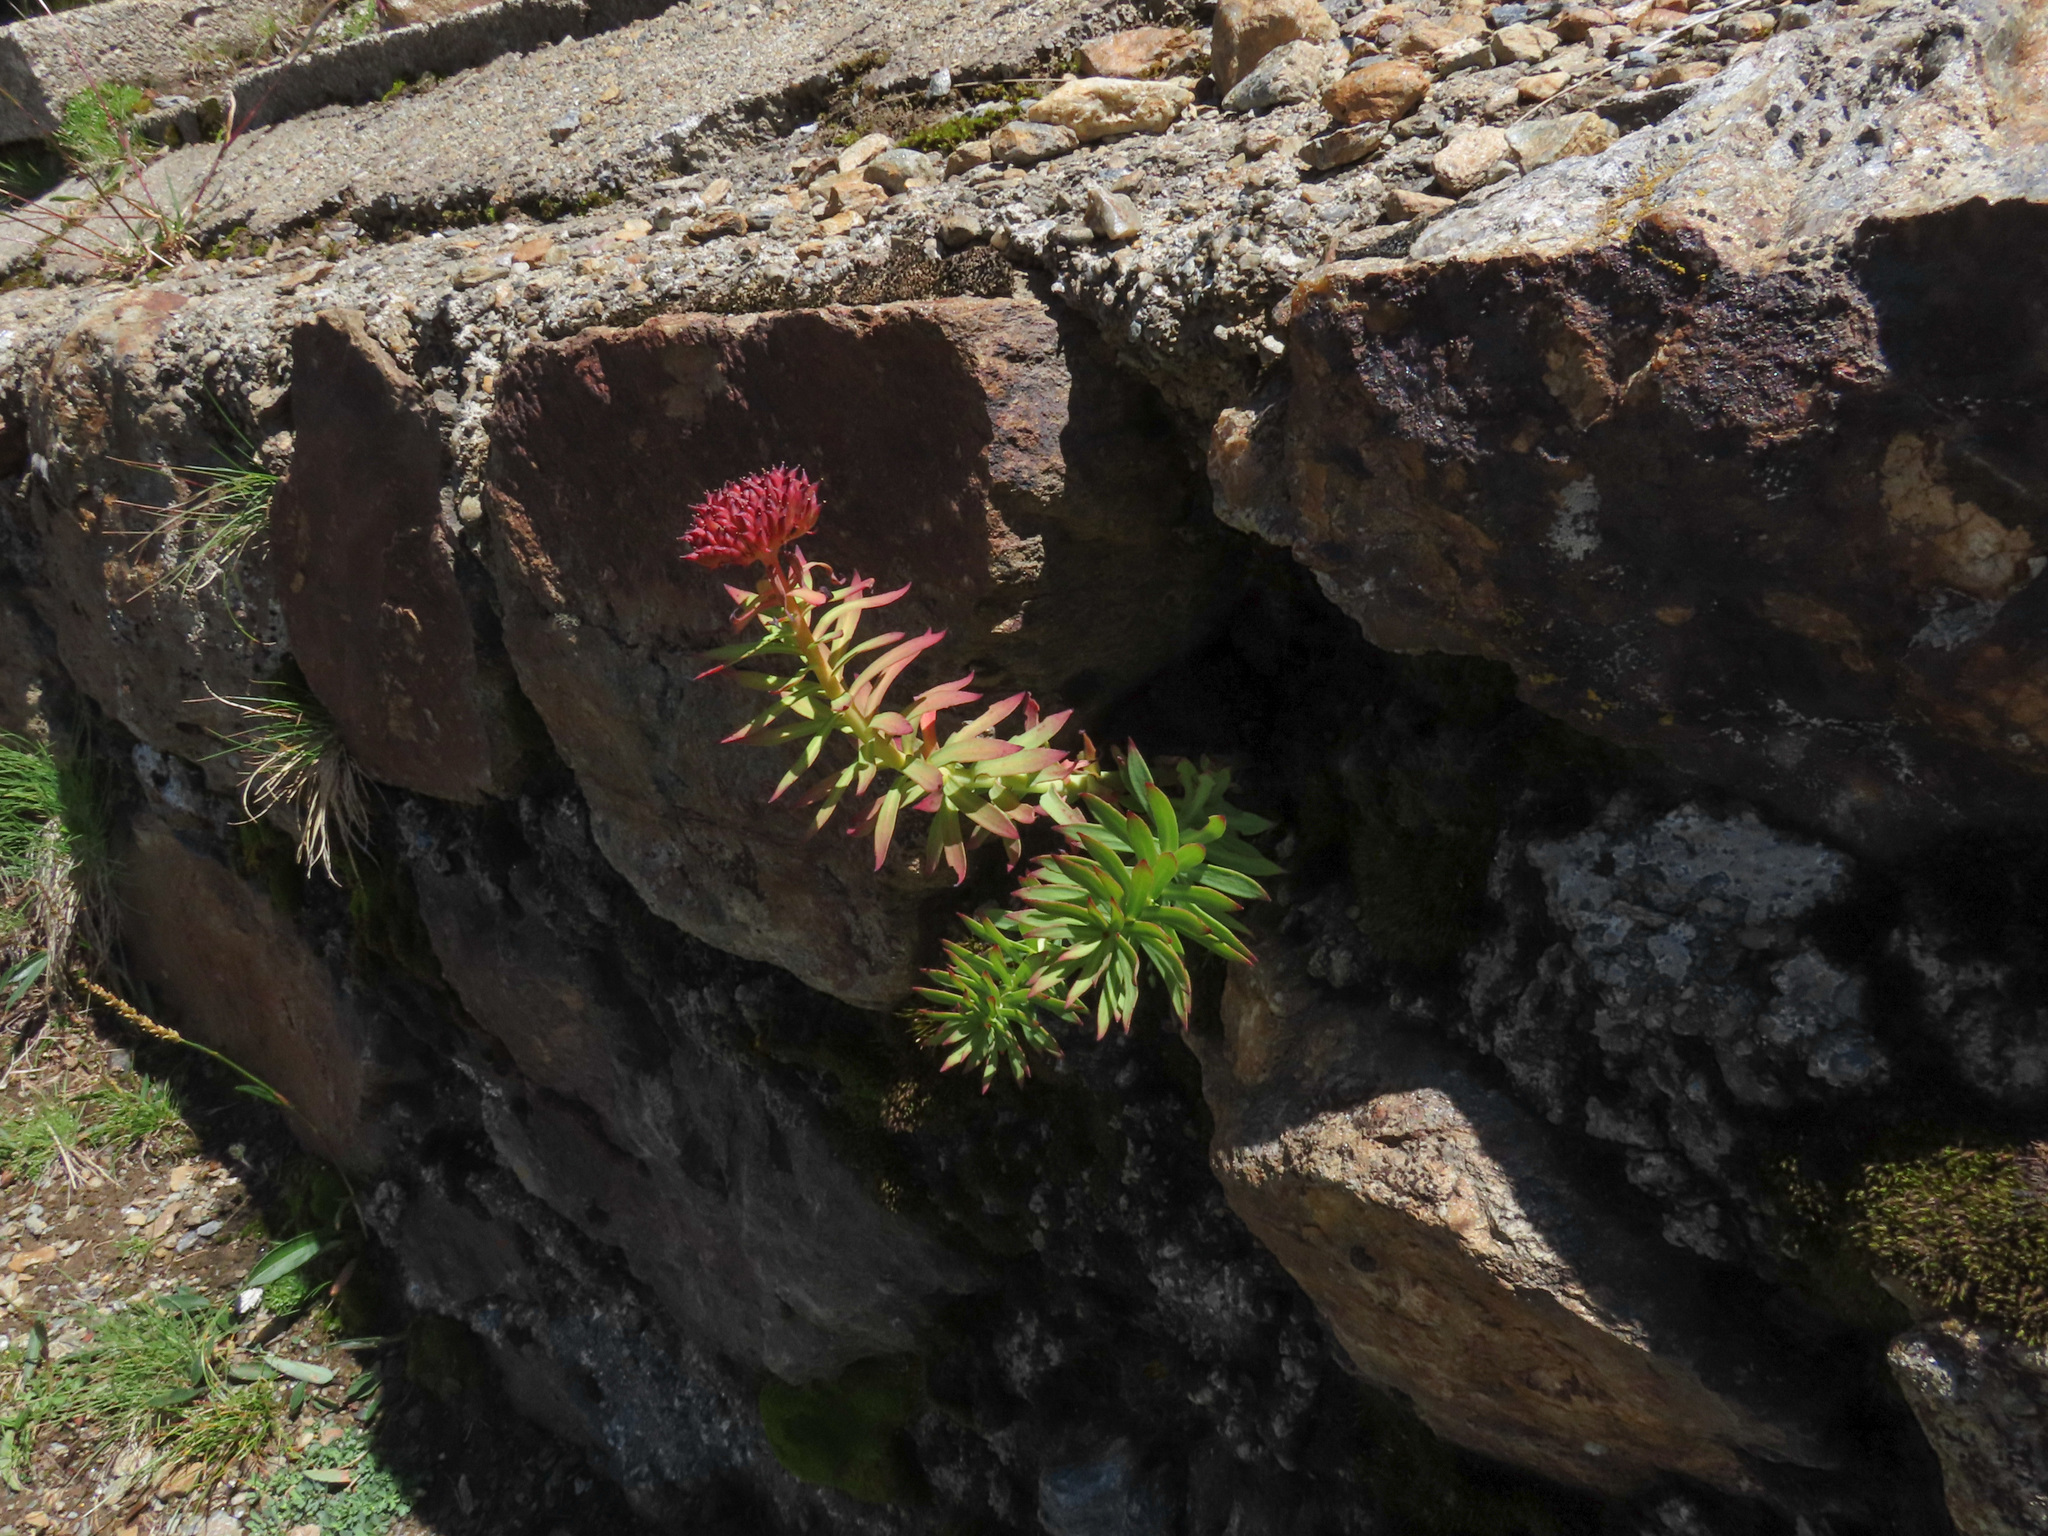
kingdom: Plantae
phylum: Tracheophyta
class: Magnoliopsida
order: Saxifragales
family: Crassulaceae
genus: Rhodiola
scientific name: Rhodiola rosea
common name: Roseroot
